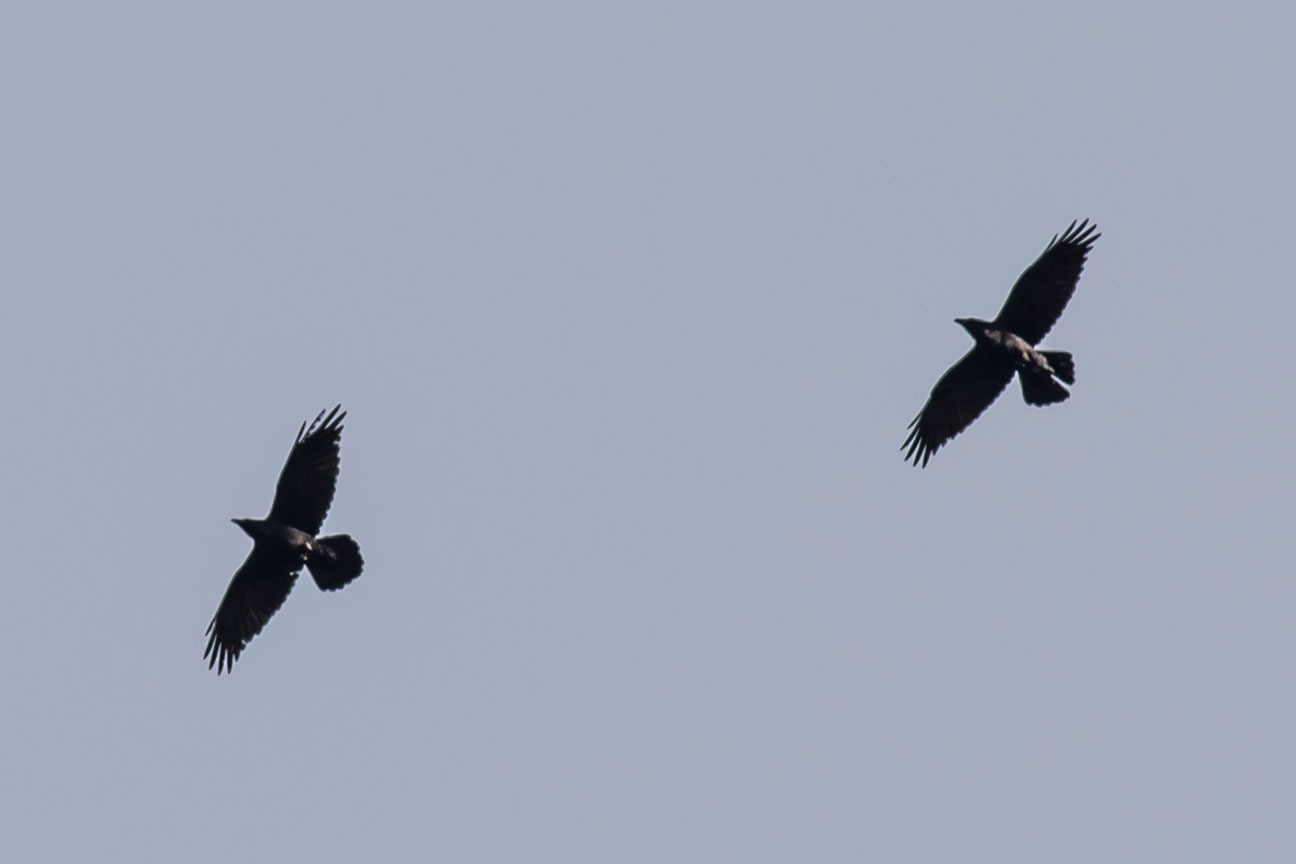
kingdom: Animalia
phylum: Chordata
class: Aves
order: Passeriformes
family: Corvidae
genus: Corvus
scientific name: Corvus corax
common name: Common raven
